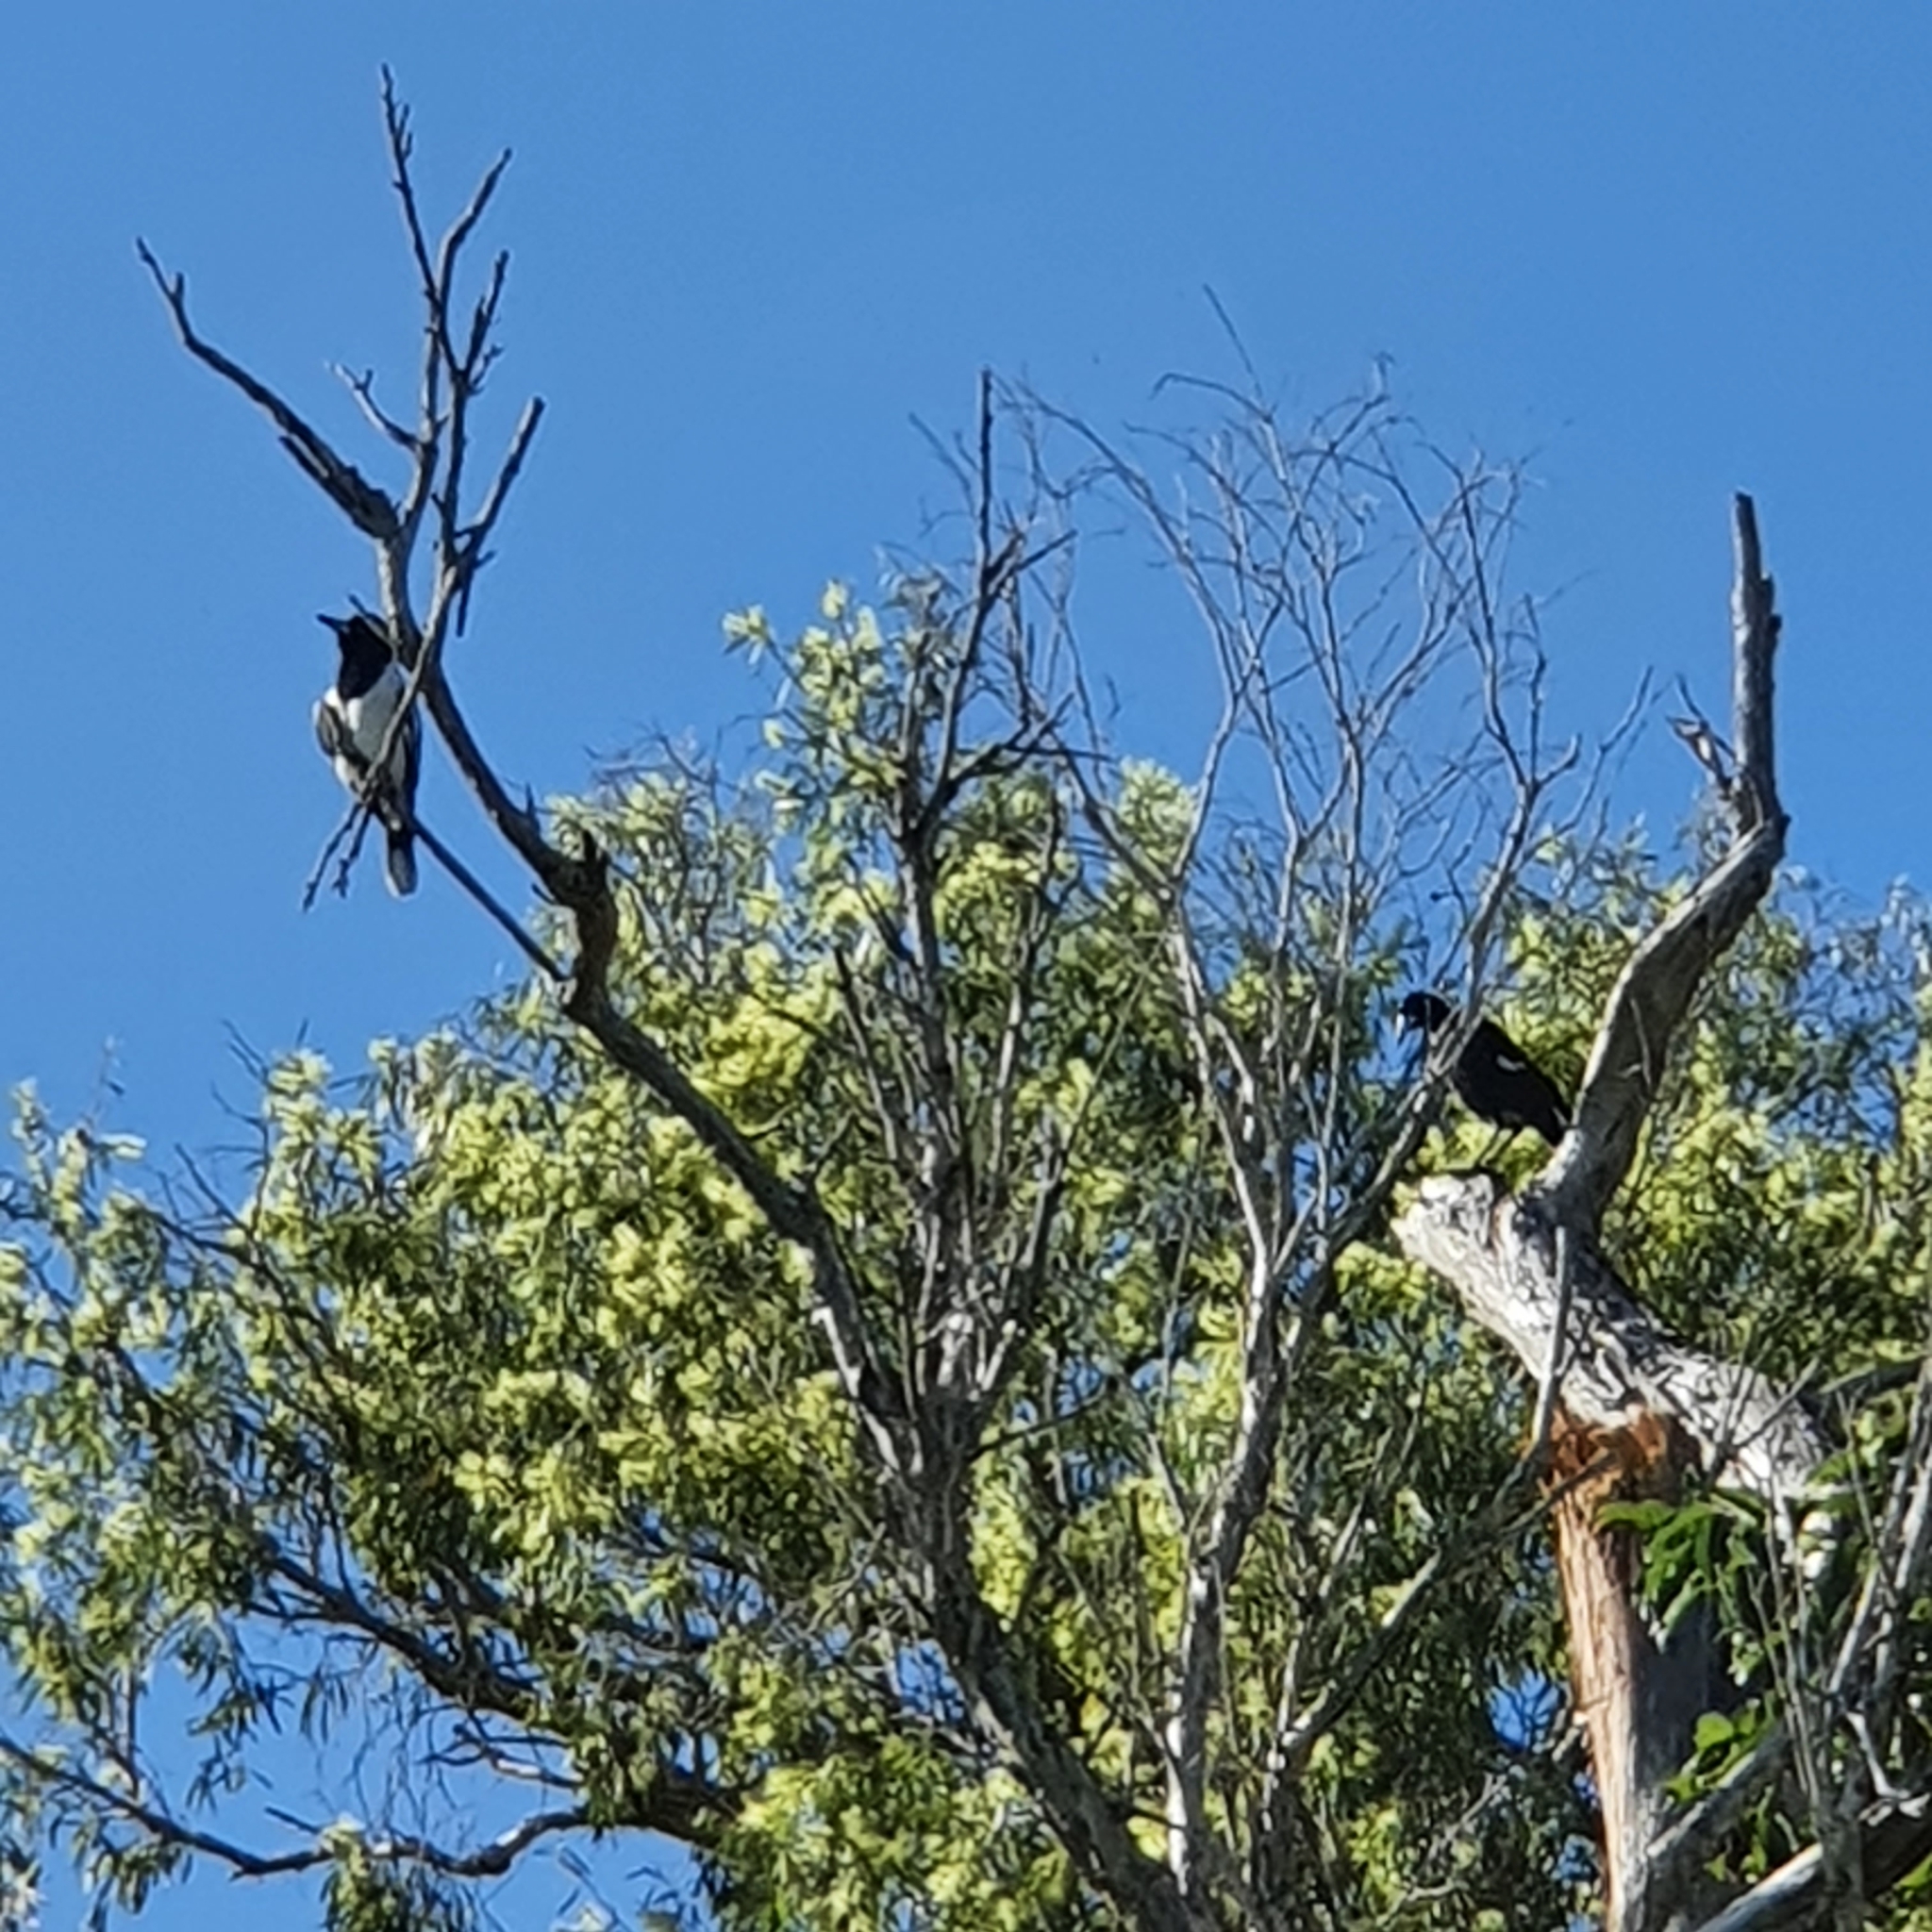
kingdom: Animalia
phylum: Chordata
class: Aves
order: Passeriformes
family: Cracticidae
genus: Gymnorhina
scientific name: Gymnorhina tibicen
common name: Australian magpie
